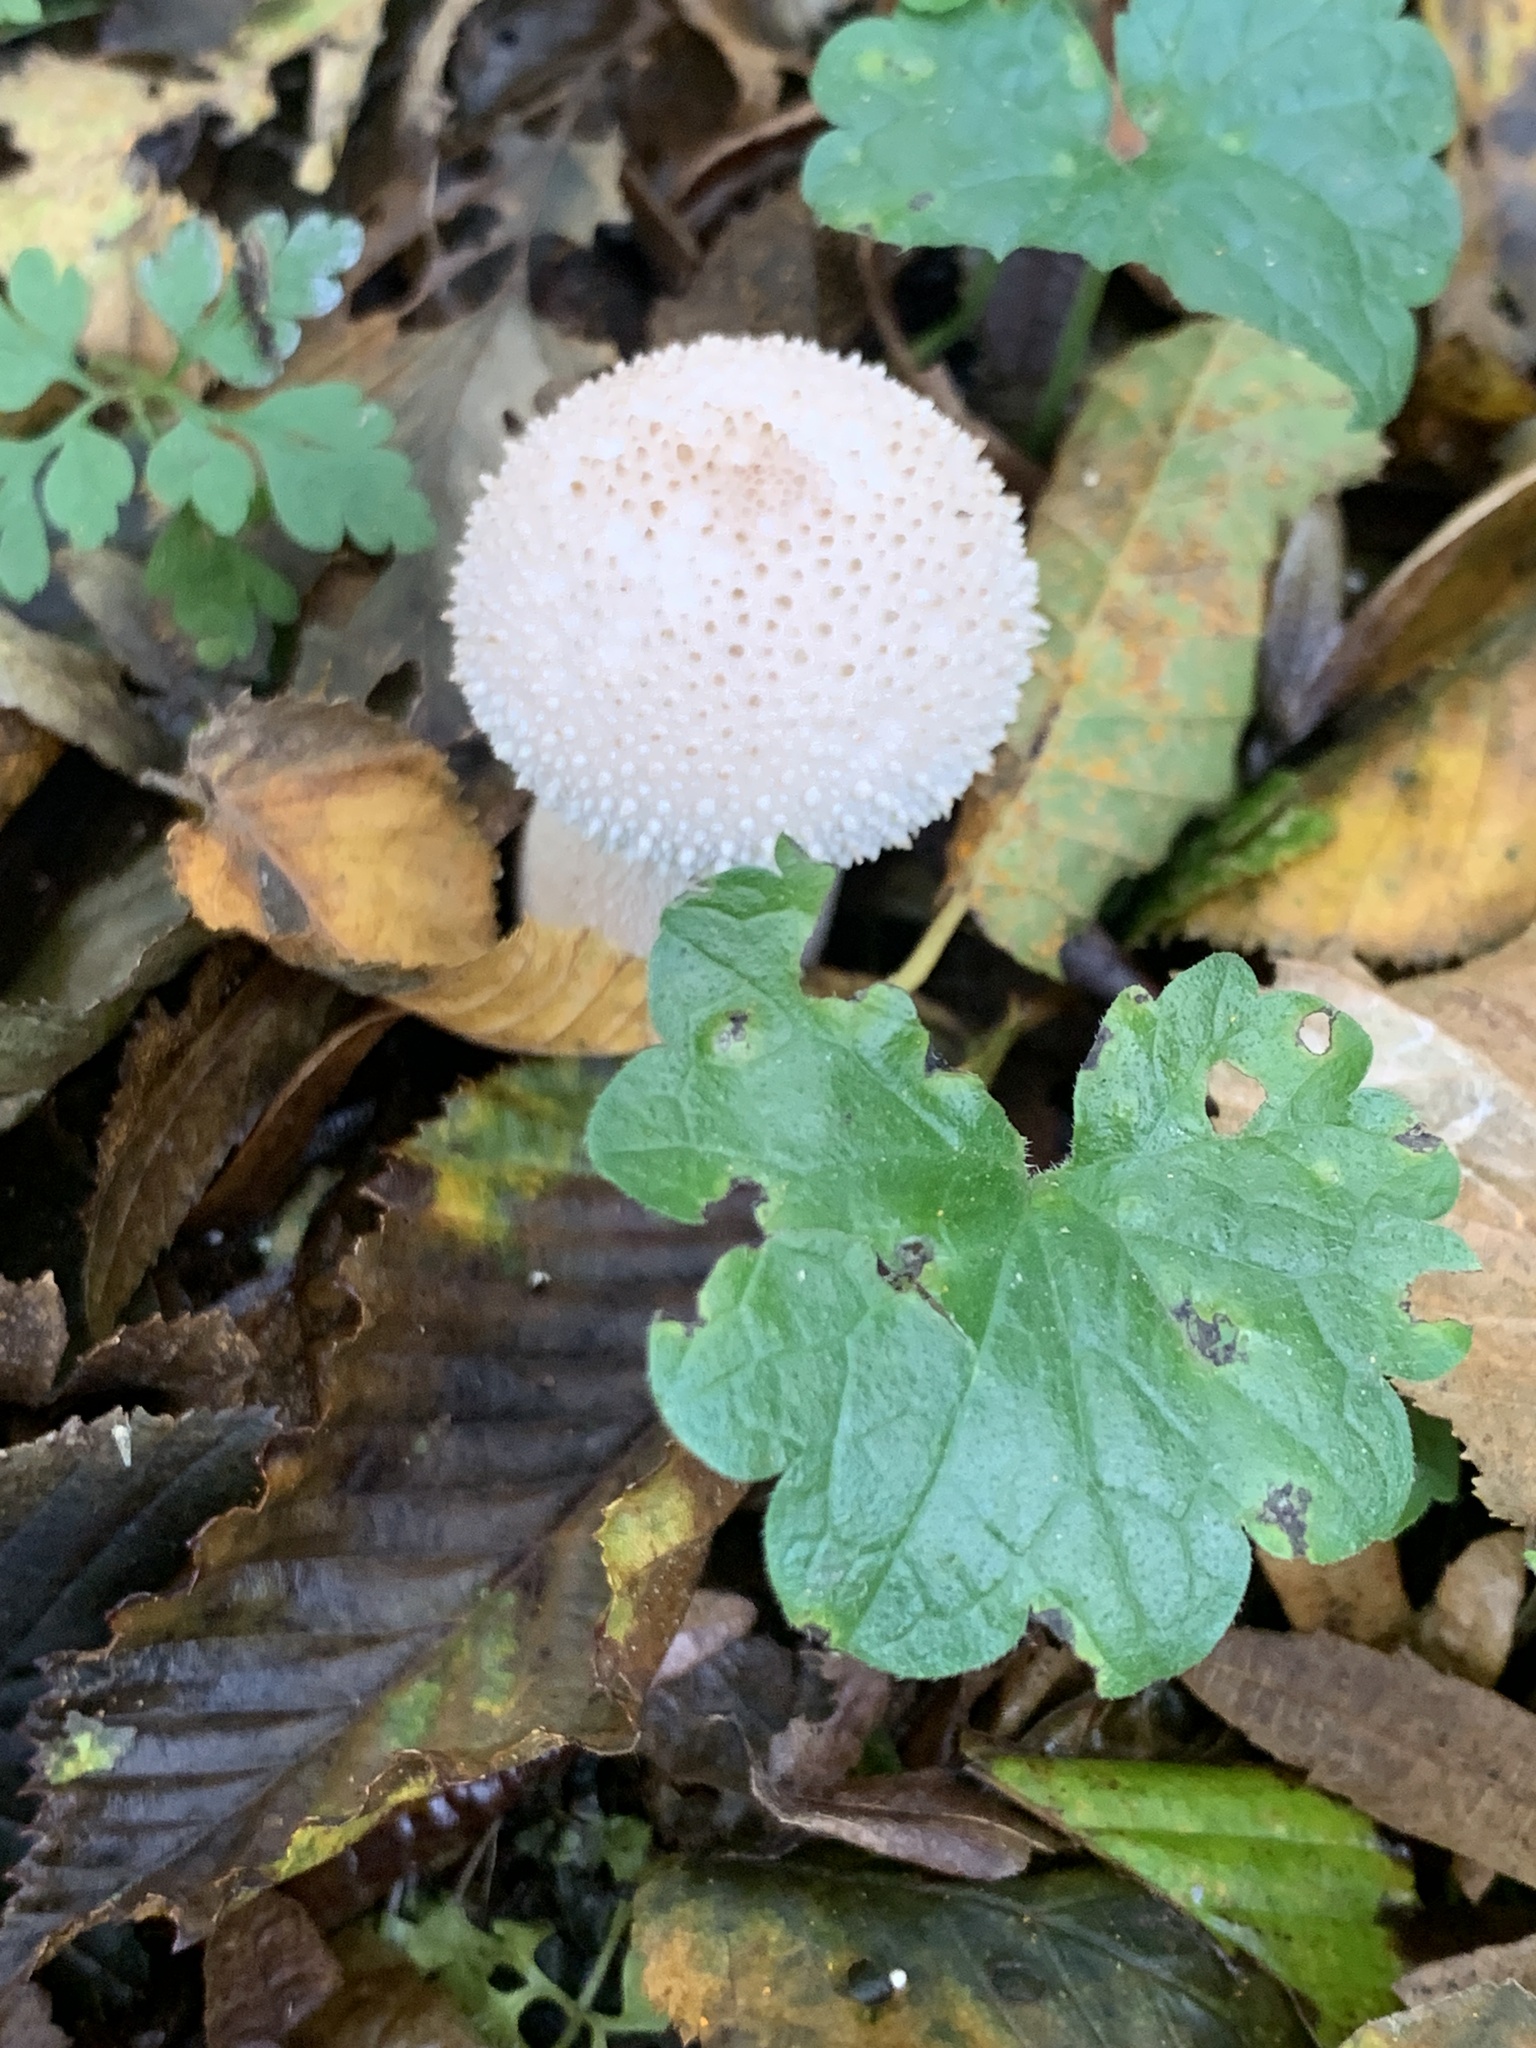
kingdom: Fungi
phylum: Basidiomycota
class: Agaricomycetes
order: Agaricales
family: Lycoperdaceae
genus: Lycoperdon
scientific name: Lycoperdon perlatum
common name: Common puffball
